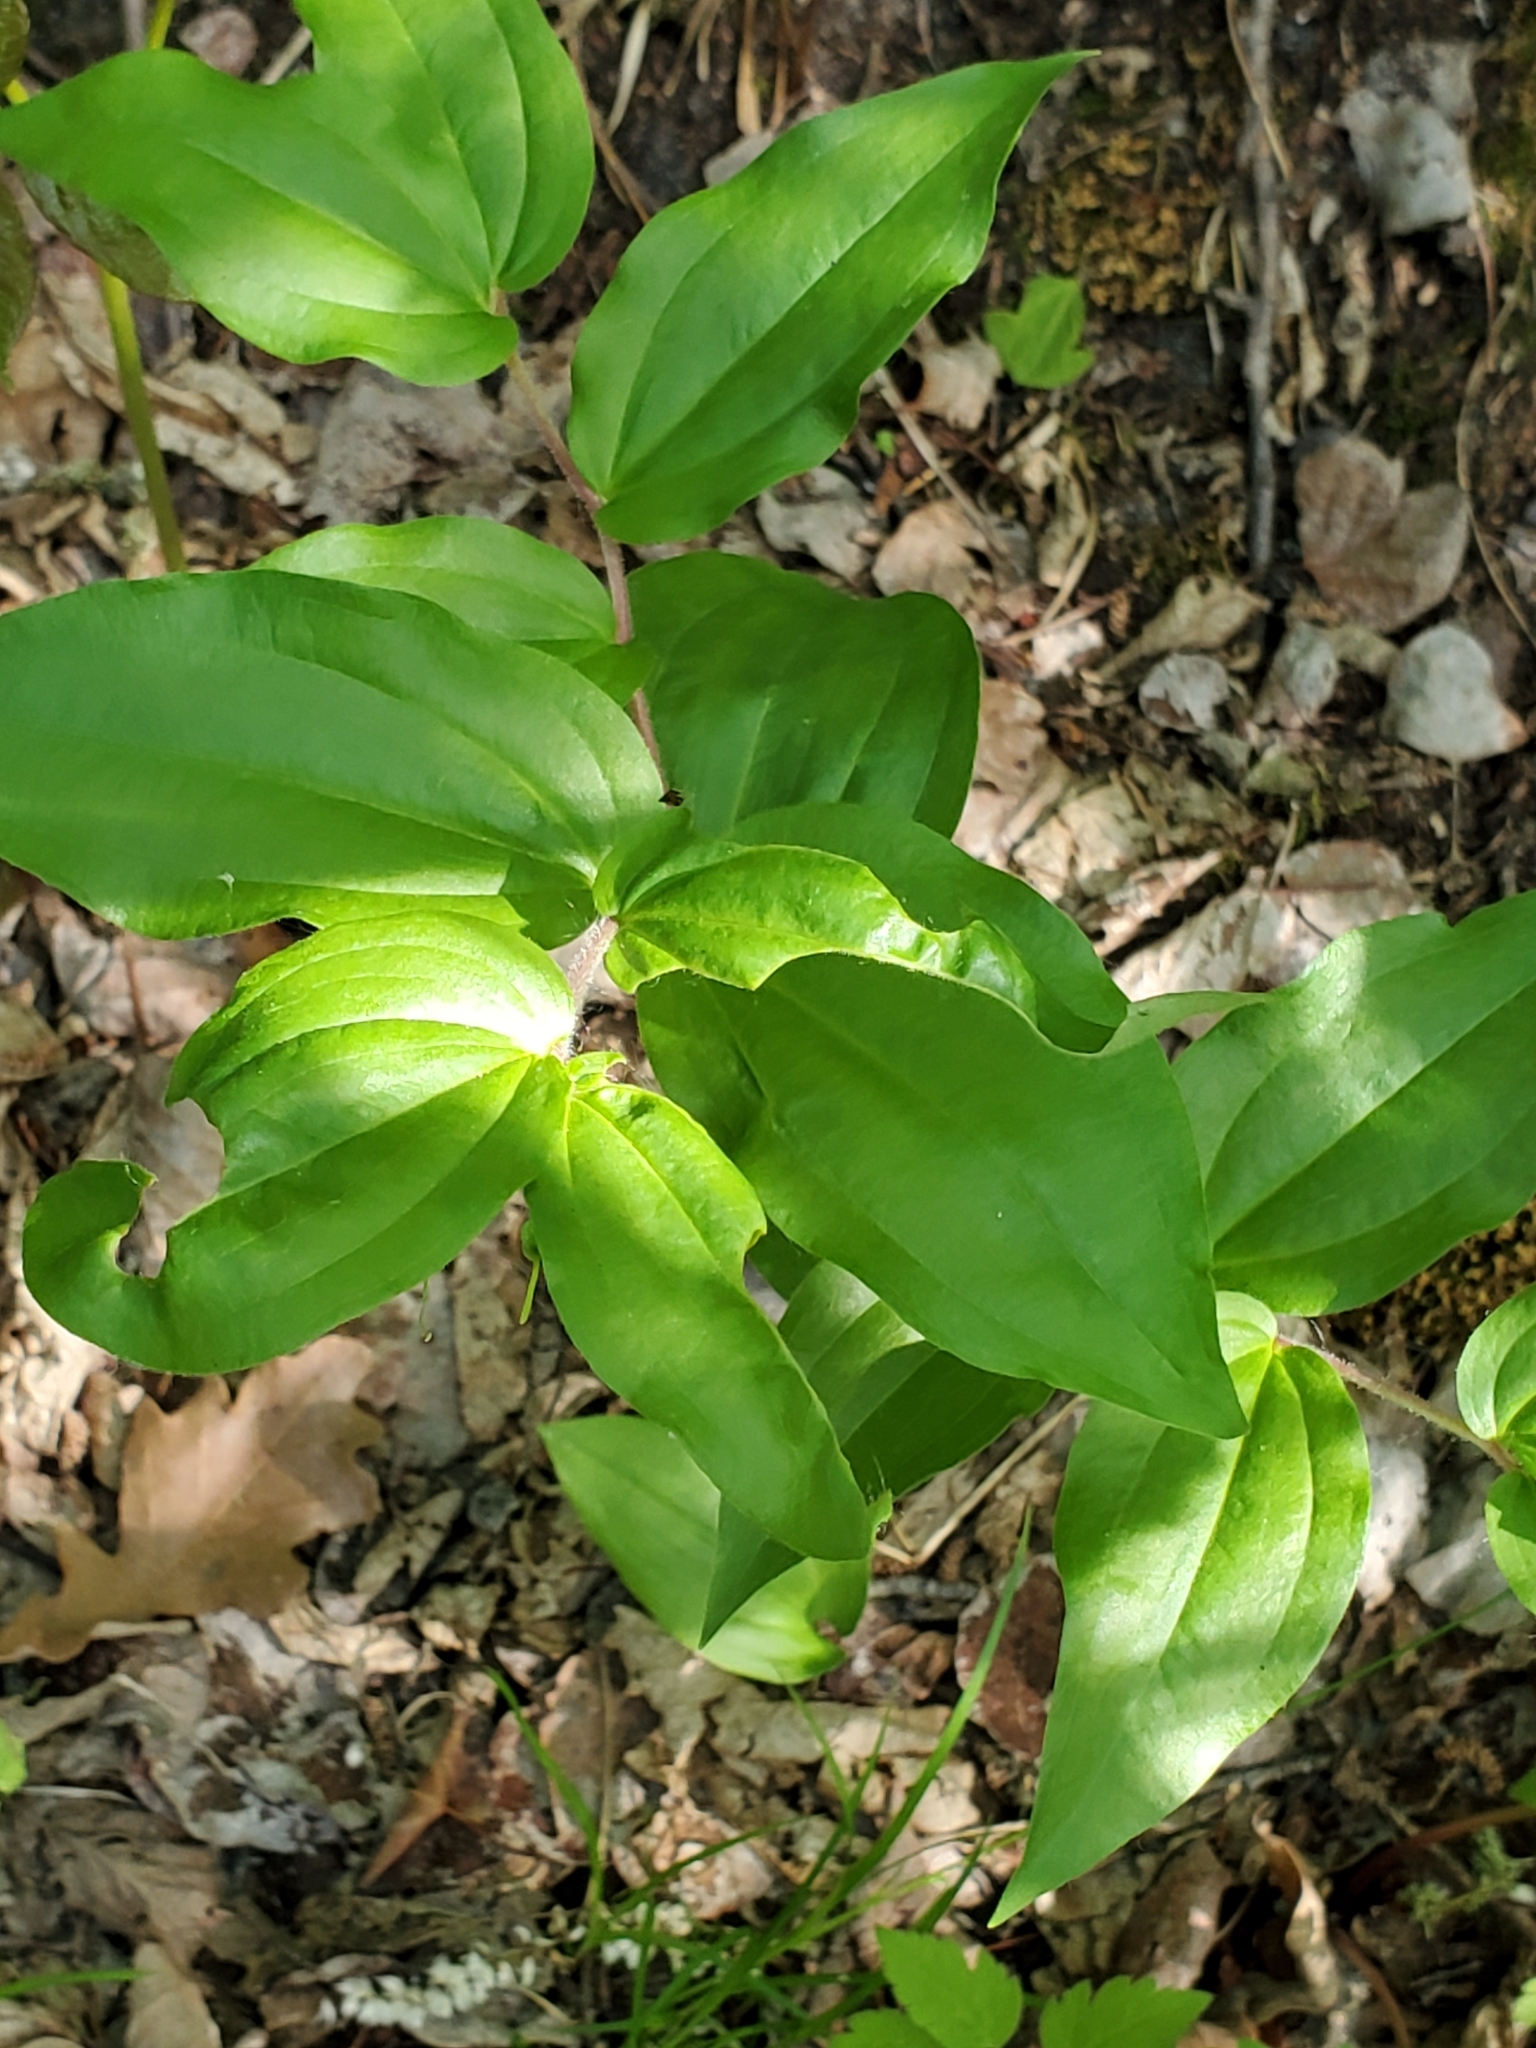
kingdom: Plantae
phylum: Tracheophyta
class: Liliopsida
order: Liliales
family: Liliaceae
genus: Prosartes
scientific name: Prosartes trachycarpa
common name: Rough-fruit fairy-bells
